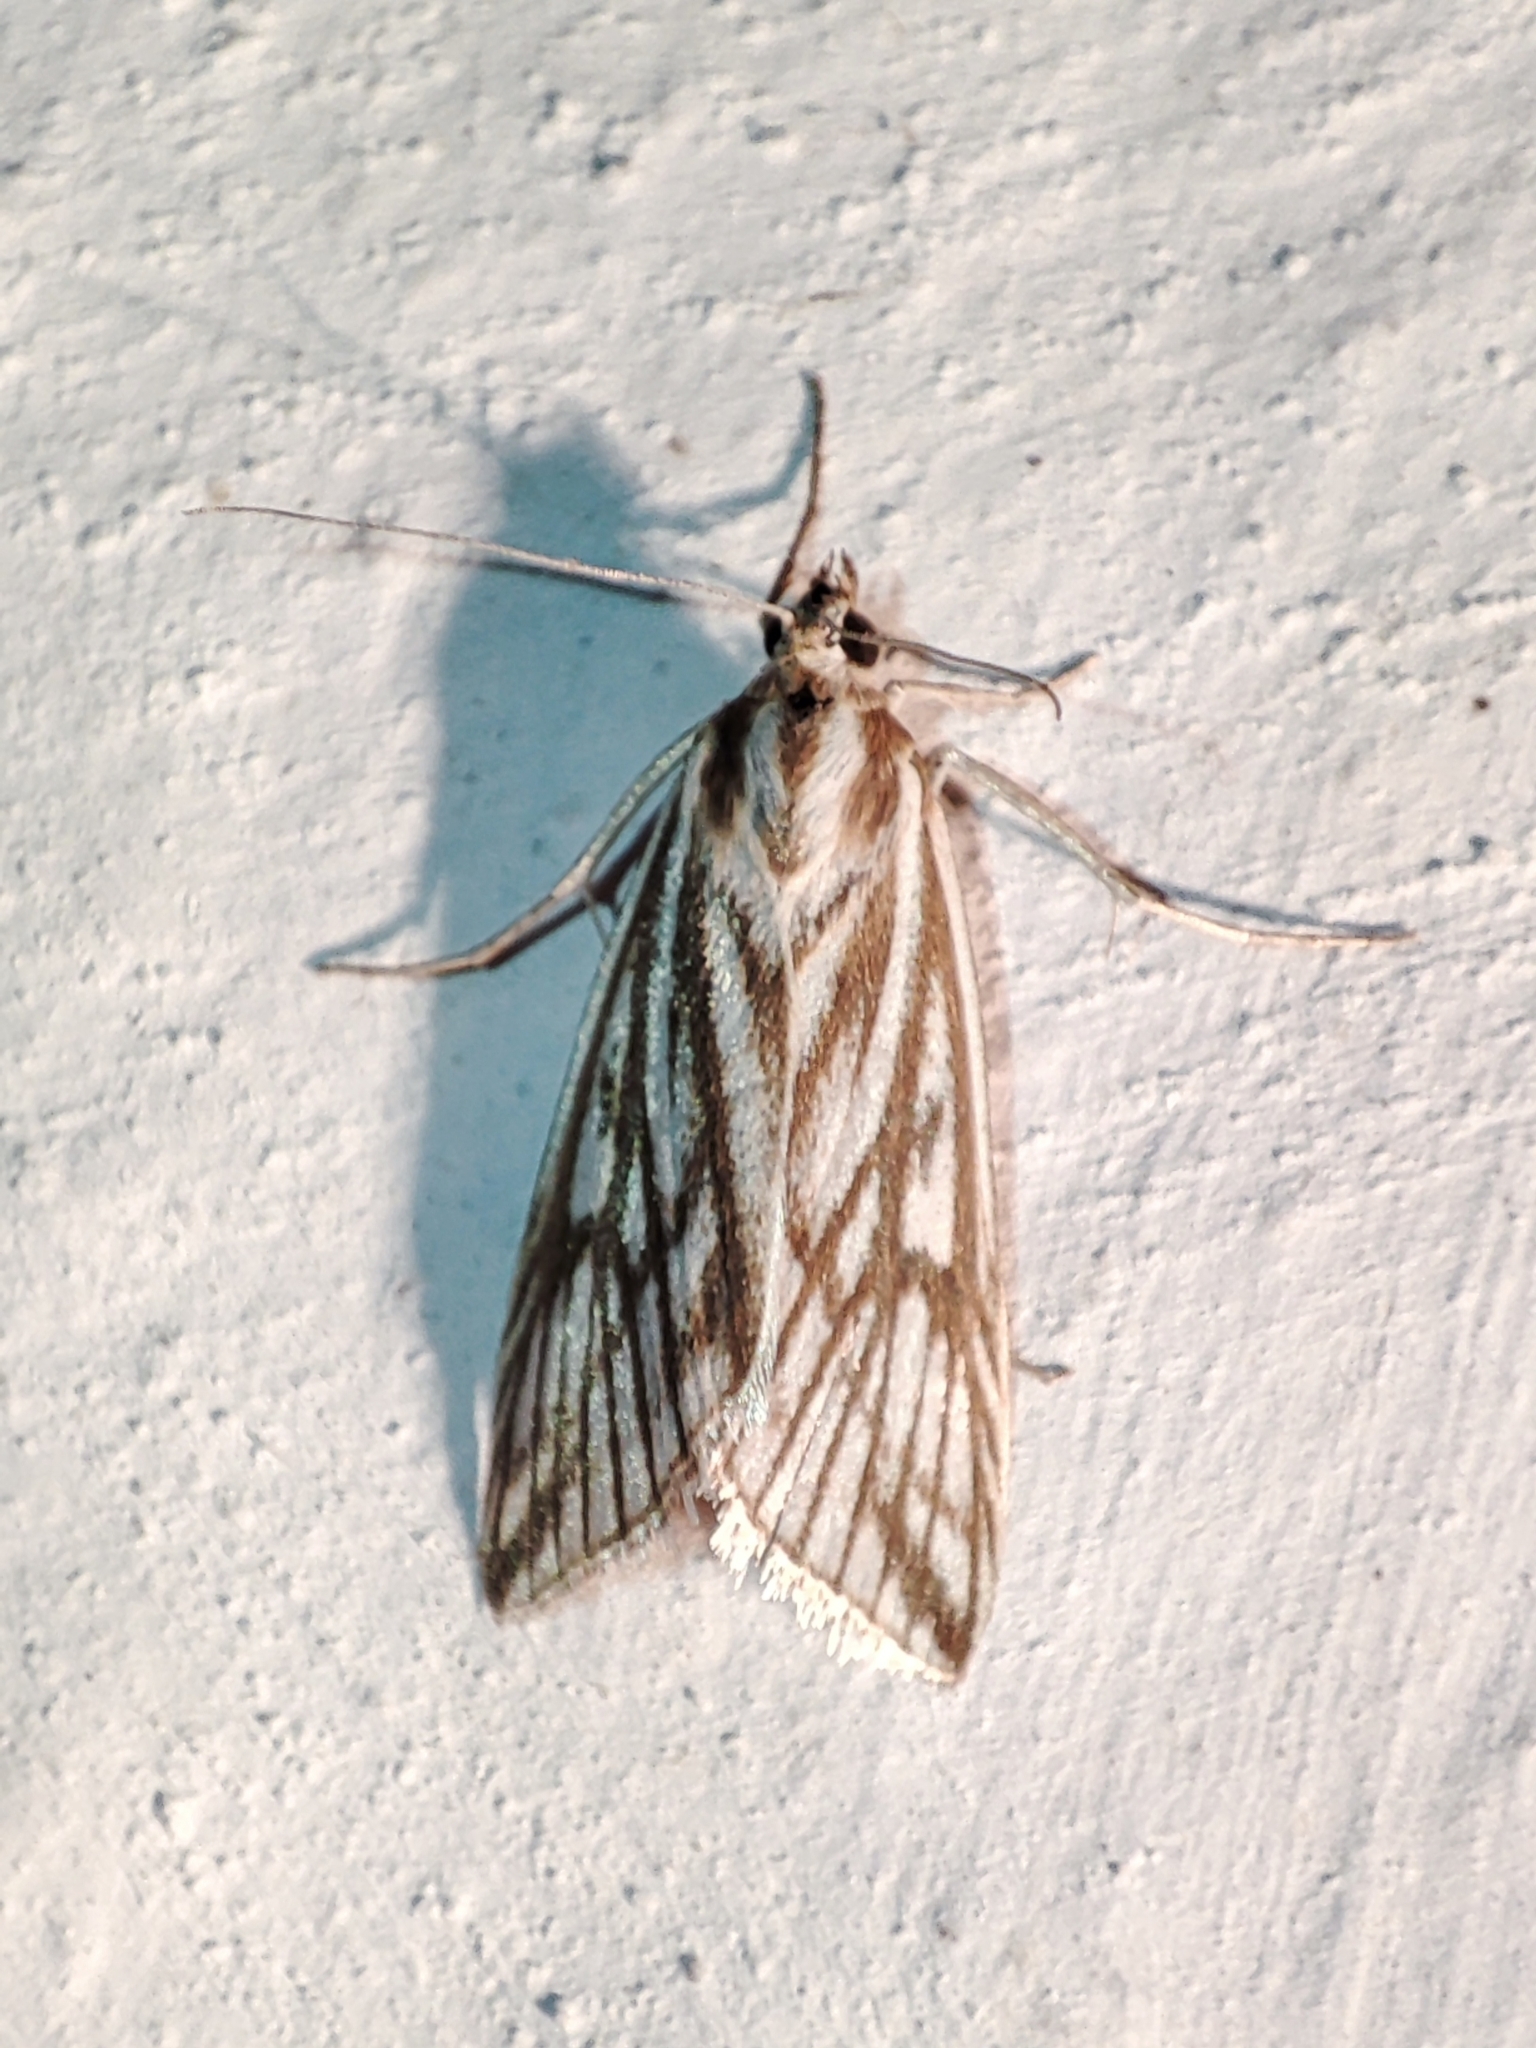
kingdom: Animalia
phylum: Arthropoda
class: Insecta
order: Lepidoptera
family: Crambidae
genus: Loxostege
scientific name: Loxostege clathralis
